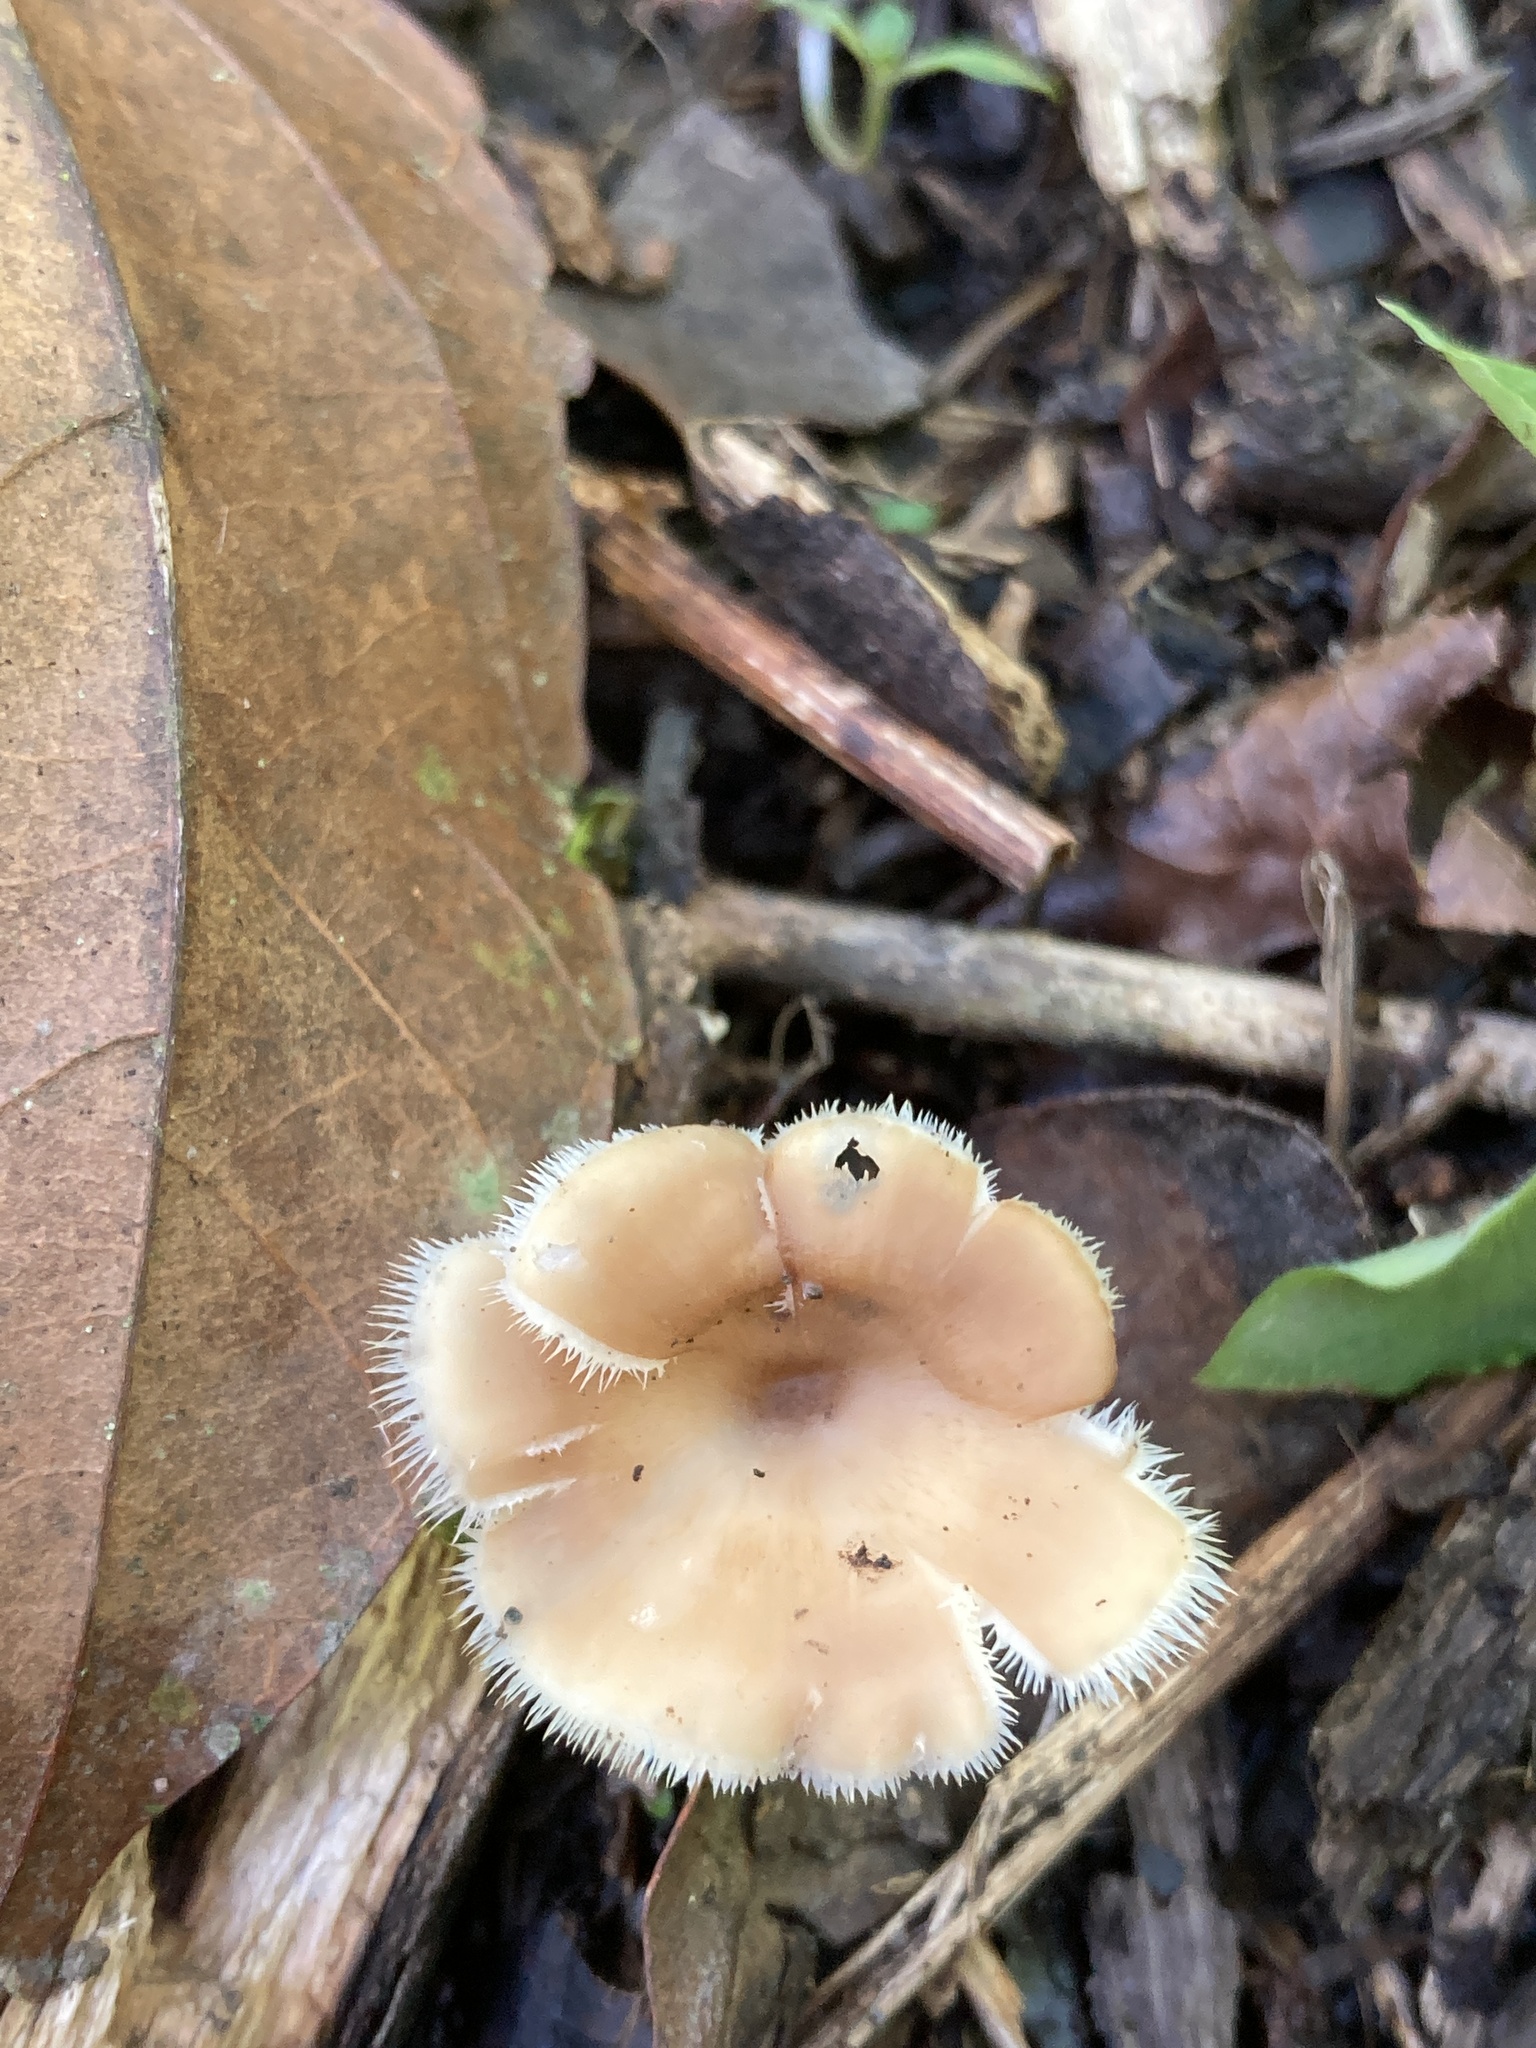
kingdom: Fungi
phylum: Basidiomycota
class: Agaricomycetes
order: Polyporales
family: Polyporaceae
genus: Lentinus
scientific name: Lentinus flexipes
